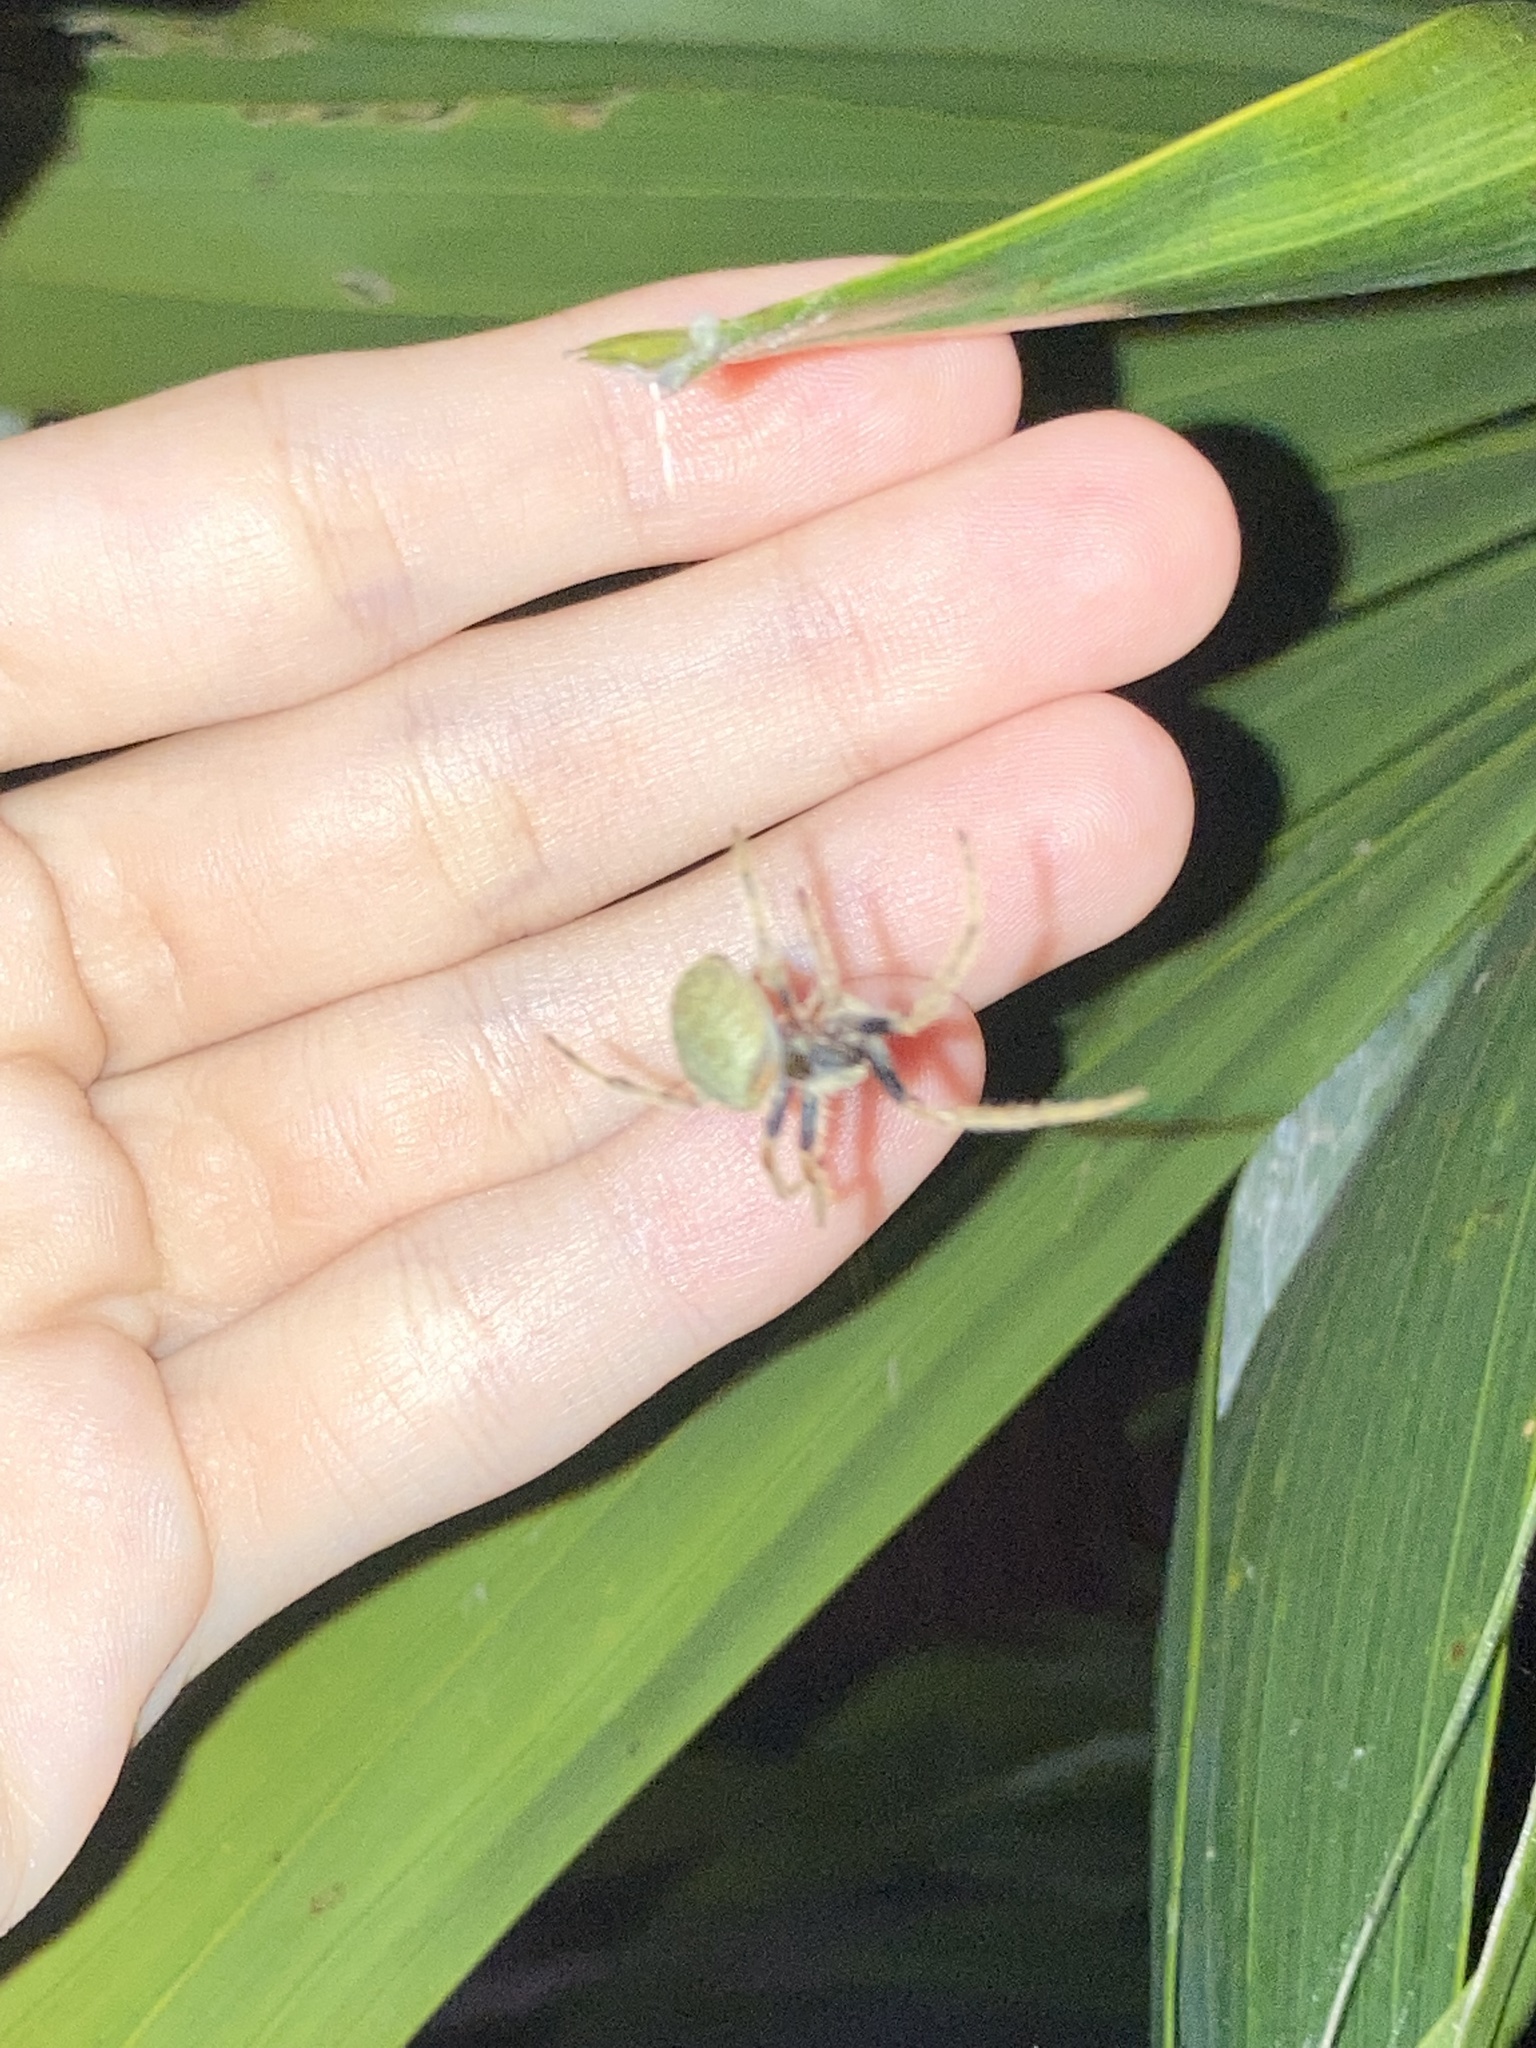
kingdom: Animalia
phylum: Arthropoda
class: Arachnida
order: Araneae
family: Araneidae
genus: Eriophora
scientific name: Eriophora ravilla
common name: Orb weavers
